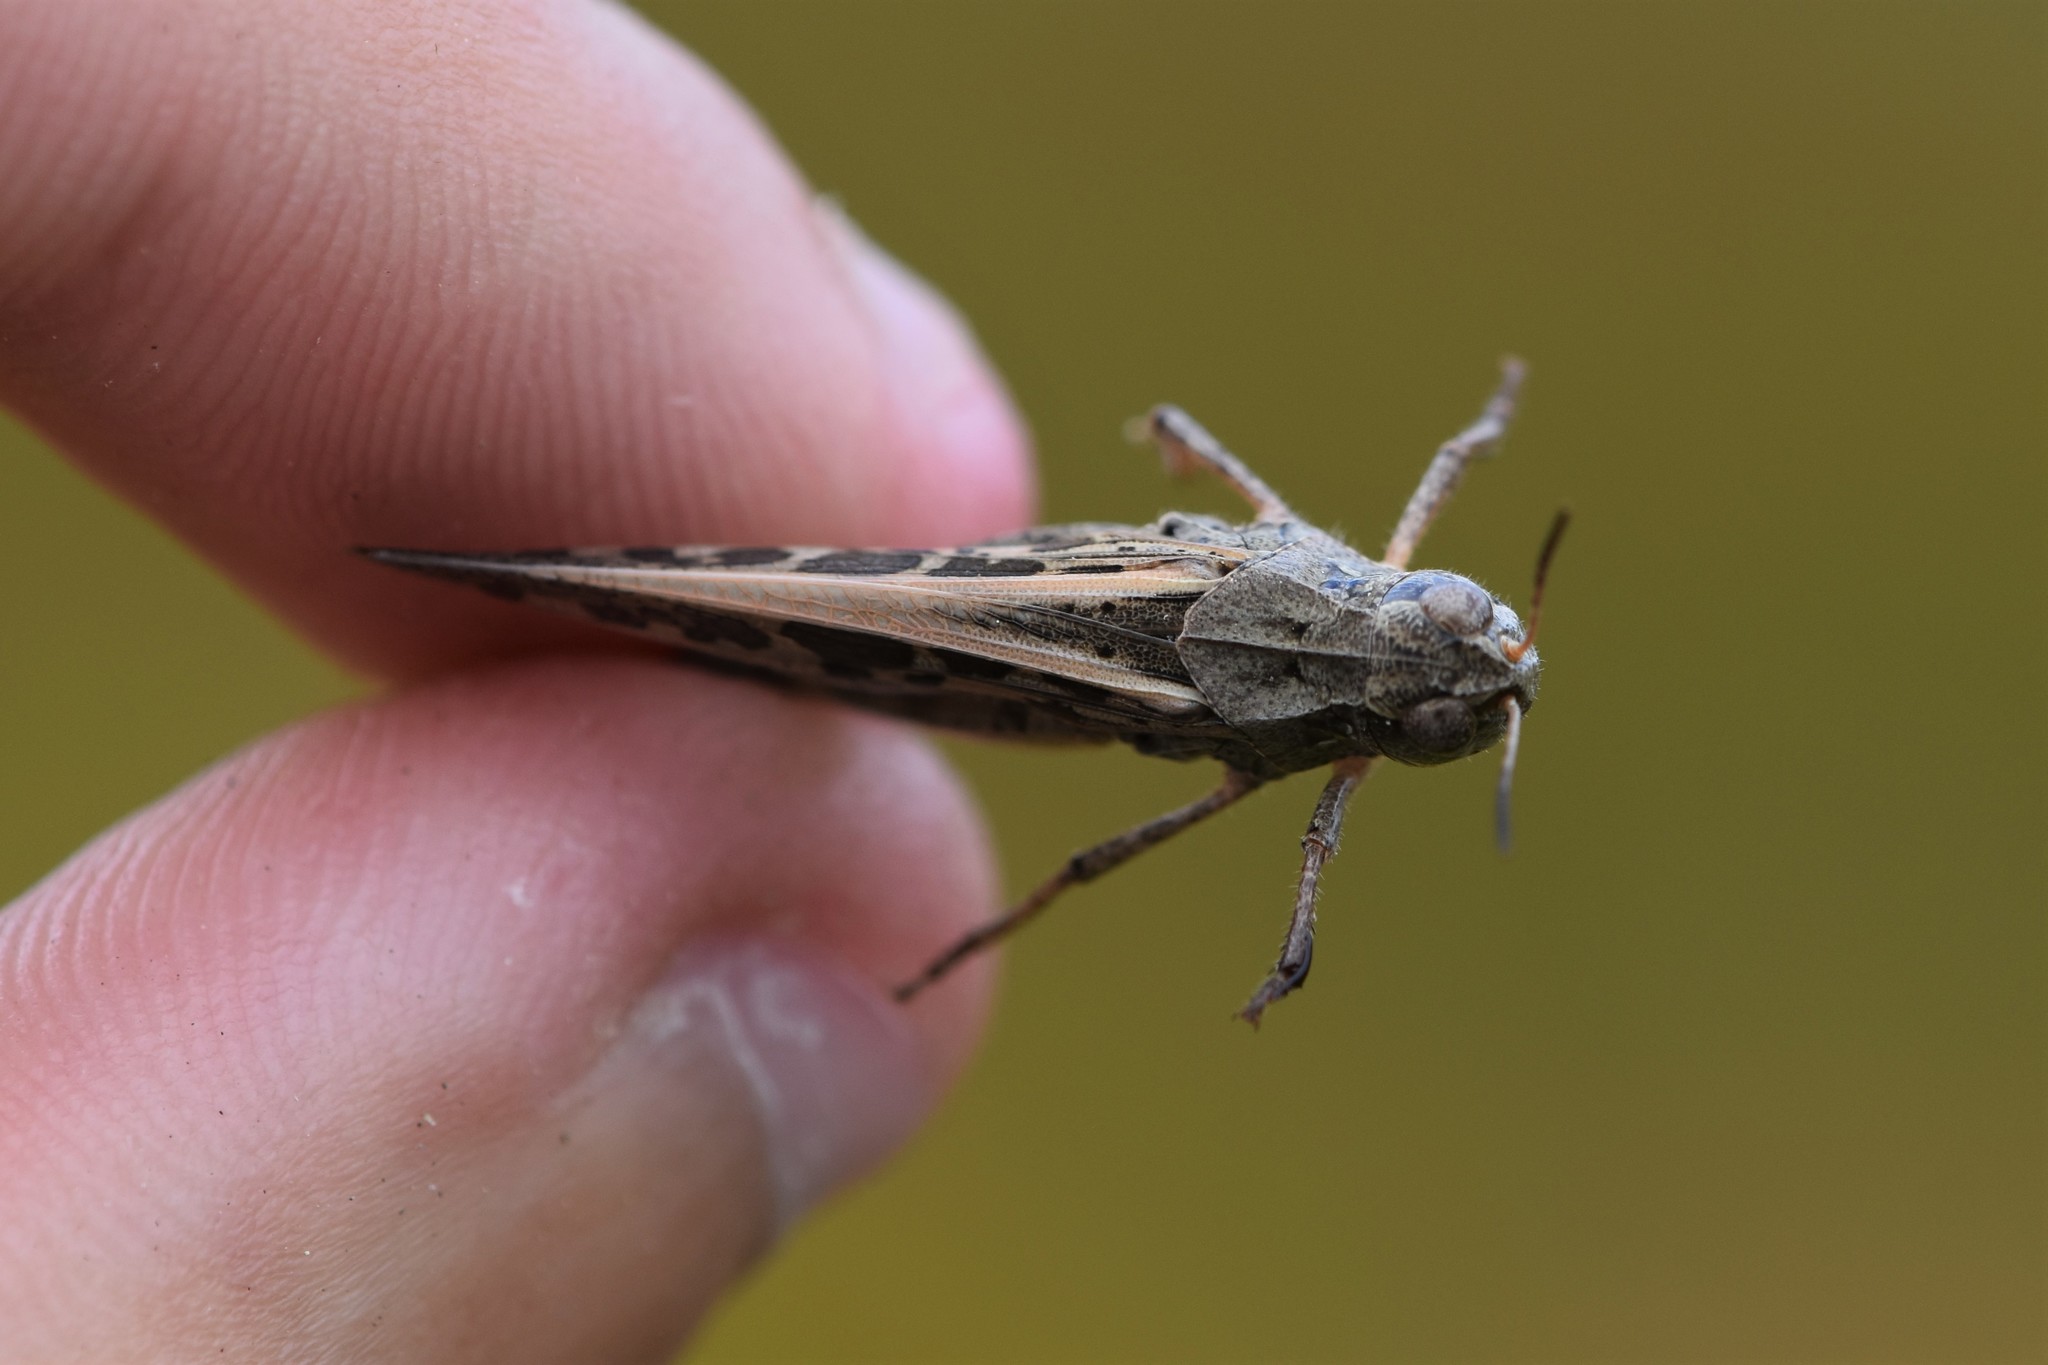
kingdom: Animalia
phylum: Arthropoda
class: Insecta
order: Orthoptera
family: Acrididae
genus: Camnula
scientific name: Camnula pellucida
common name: Clear-winged grasshopper
